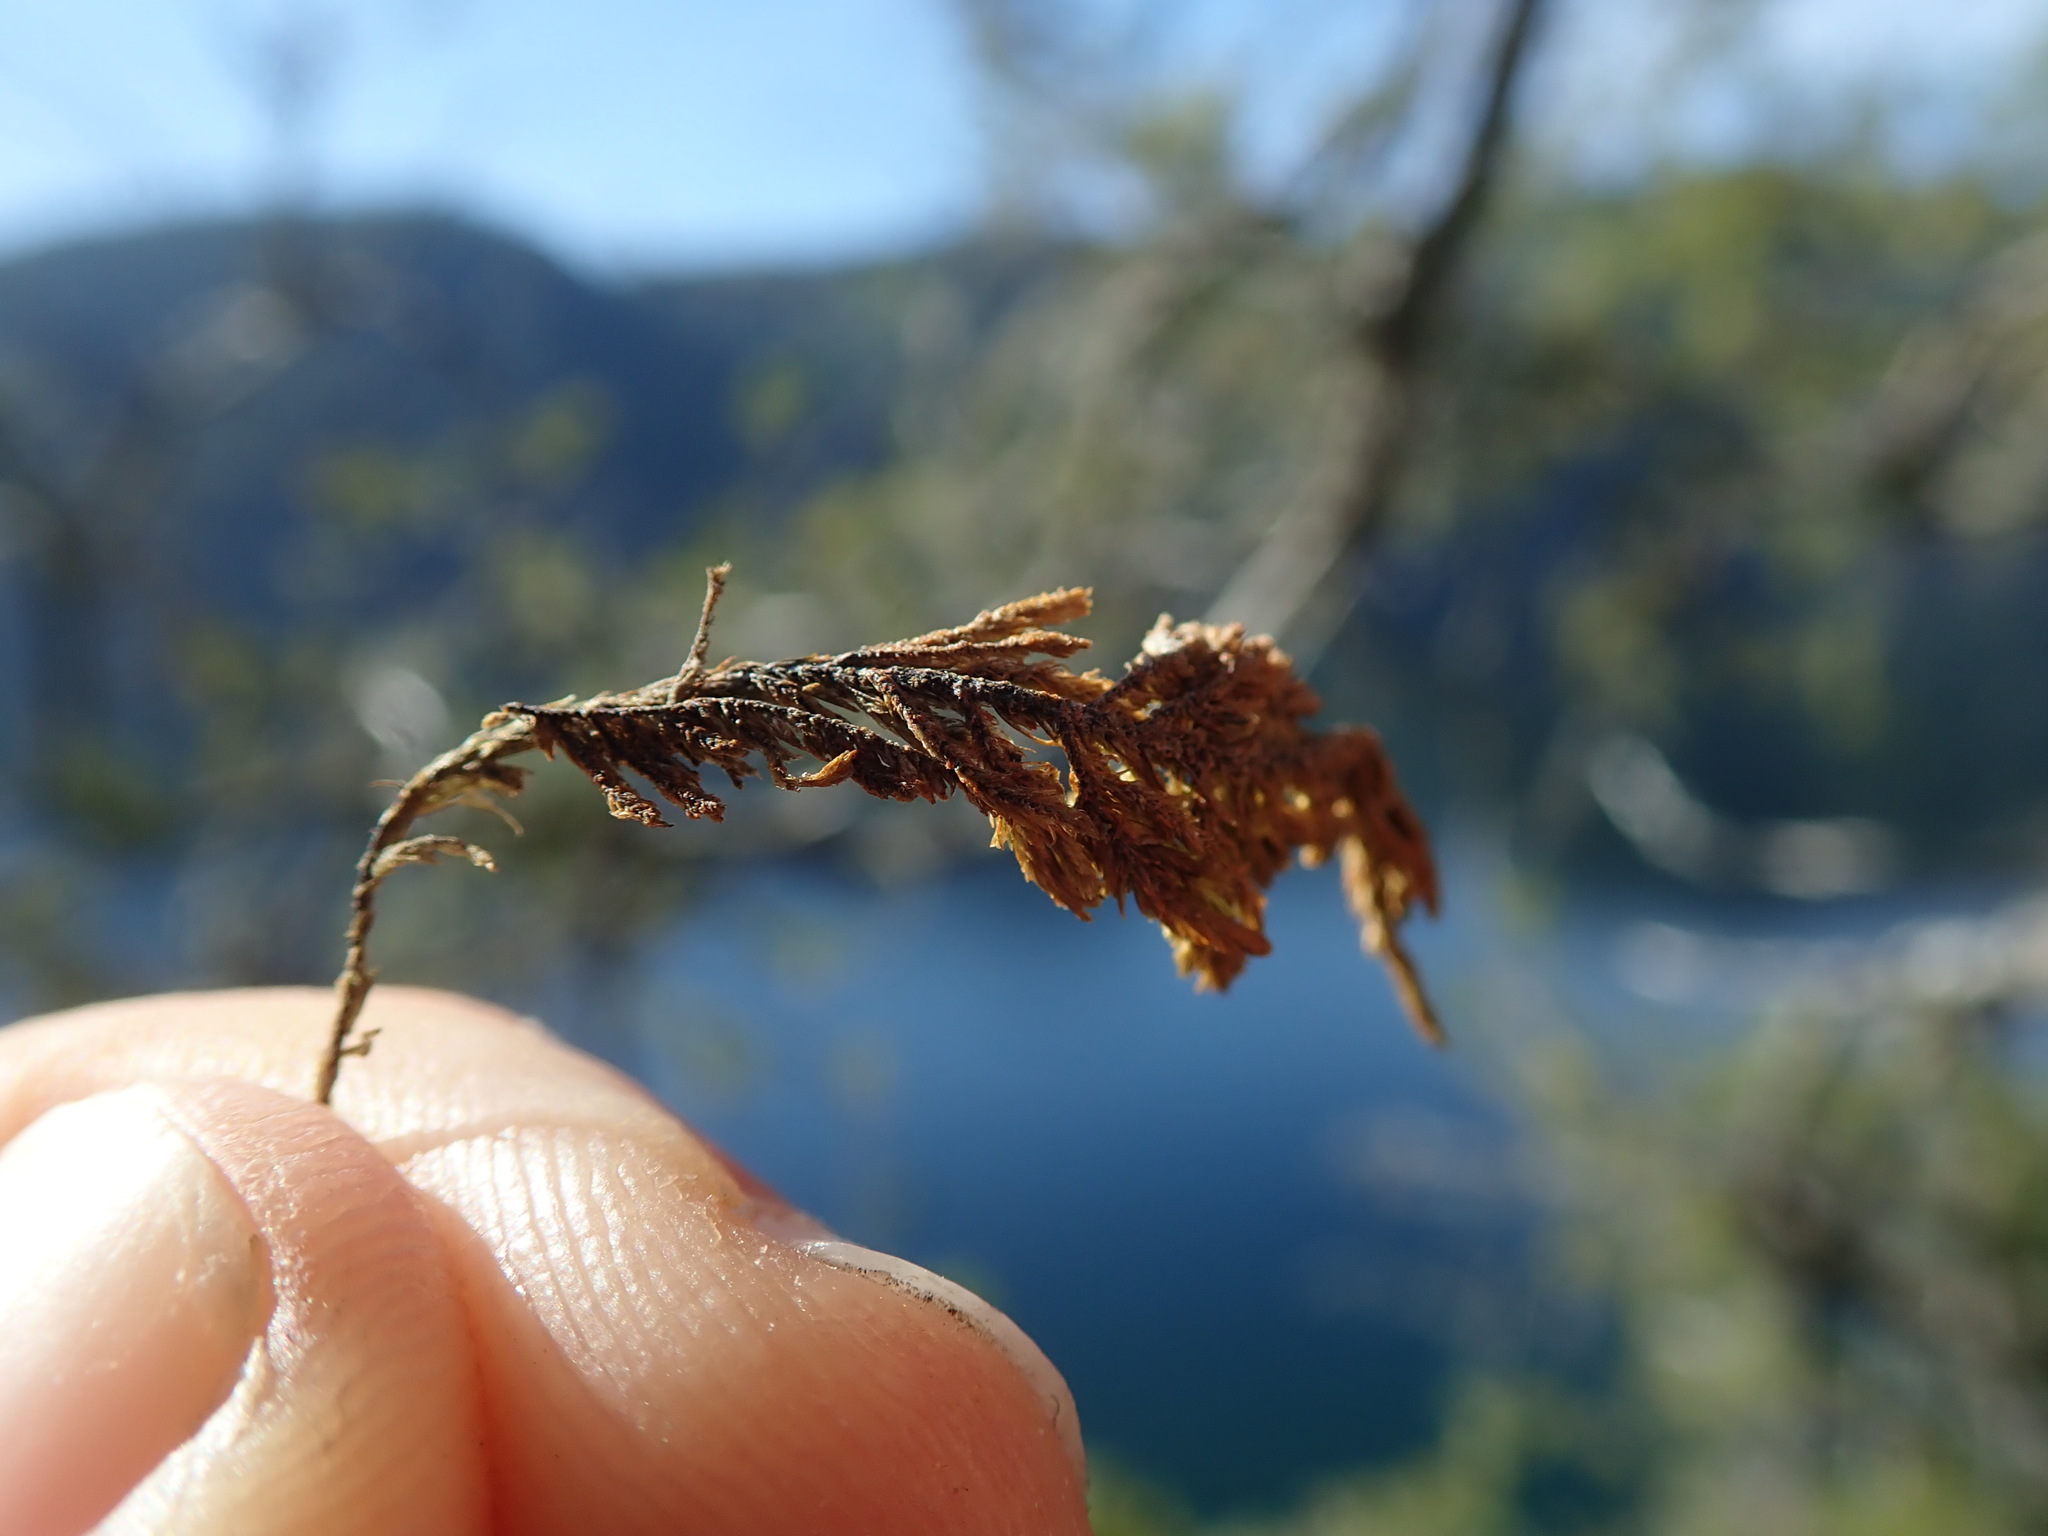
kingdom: Plantae
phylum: Bryophyta
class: Bryopsida
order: Hypnales
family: Cryphaeaceae
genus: Dendroalsia
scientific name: Dendroalsia abietina
